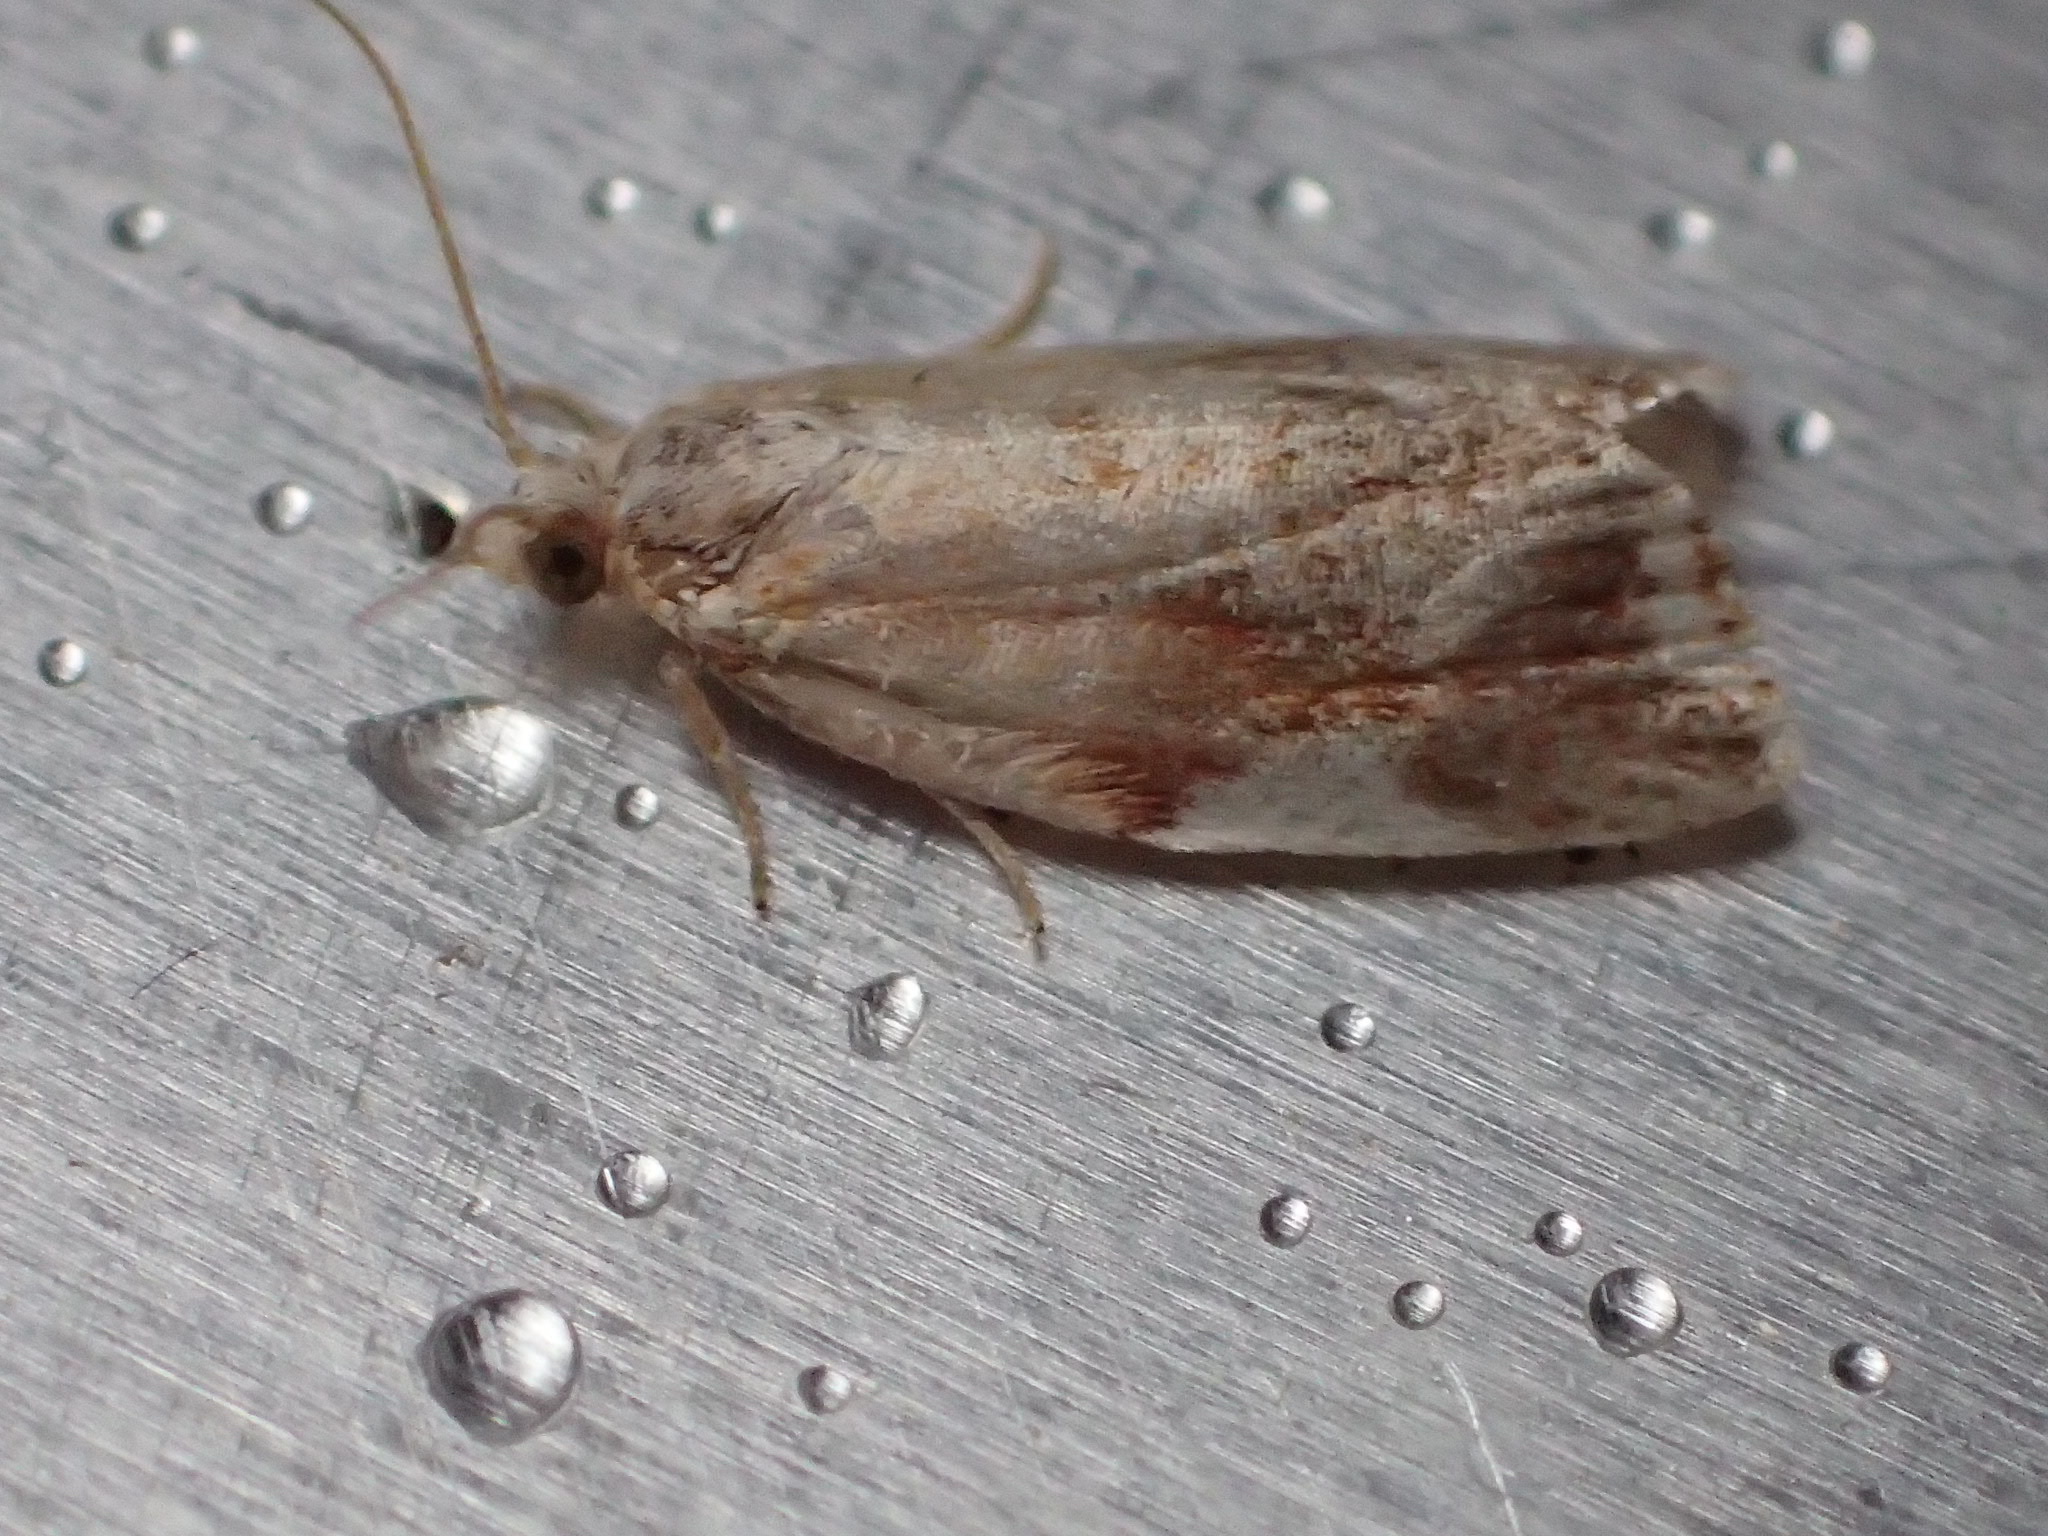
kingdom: Animalia
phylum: Arthropoda
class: Insecta
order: Lepidoptera
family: Tortricidae
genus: Clepsis
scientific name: Clepsis persicana
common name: White triangle tortrix
